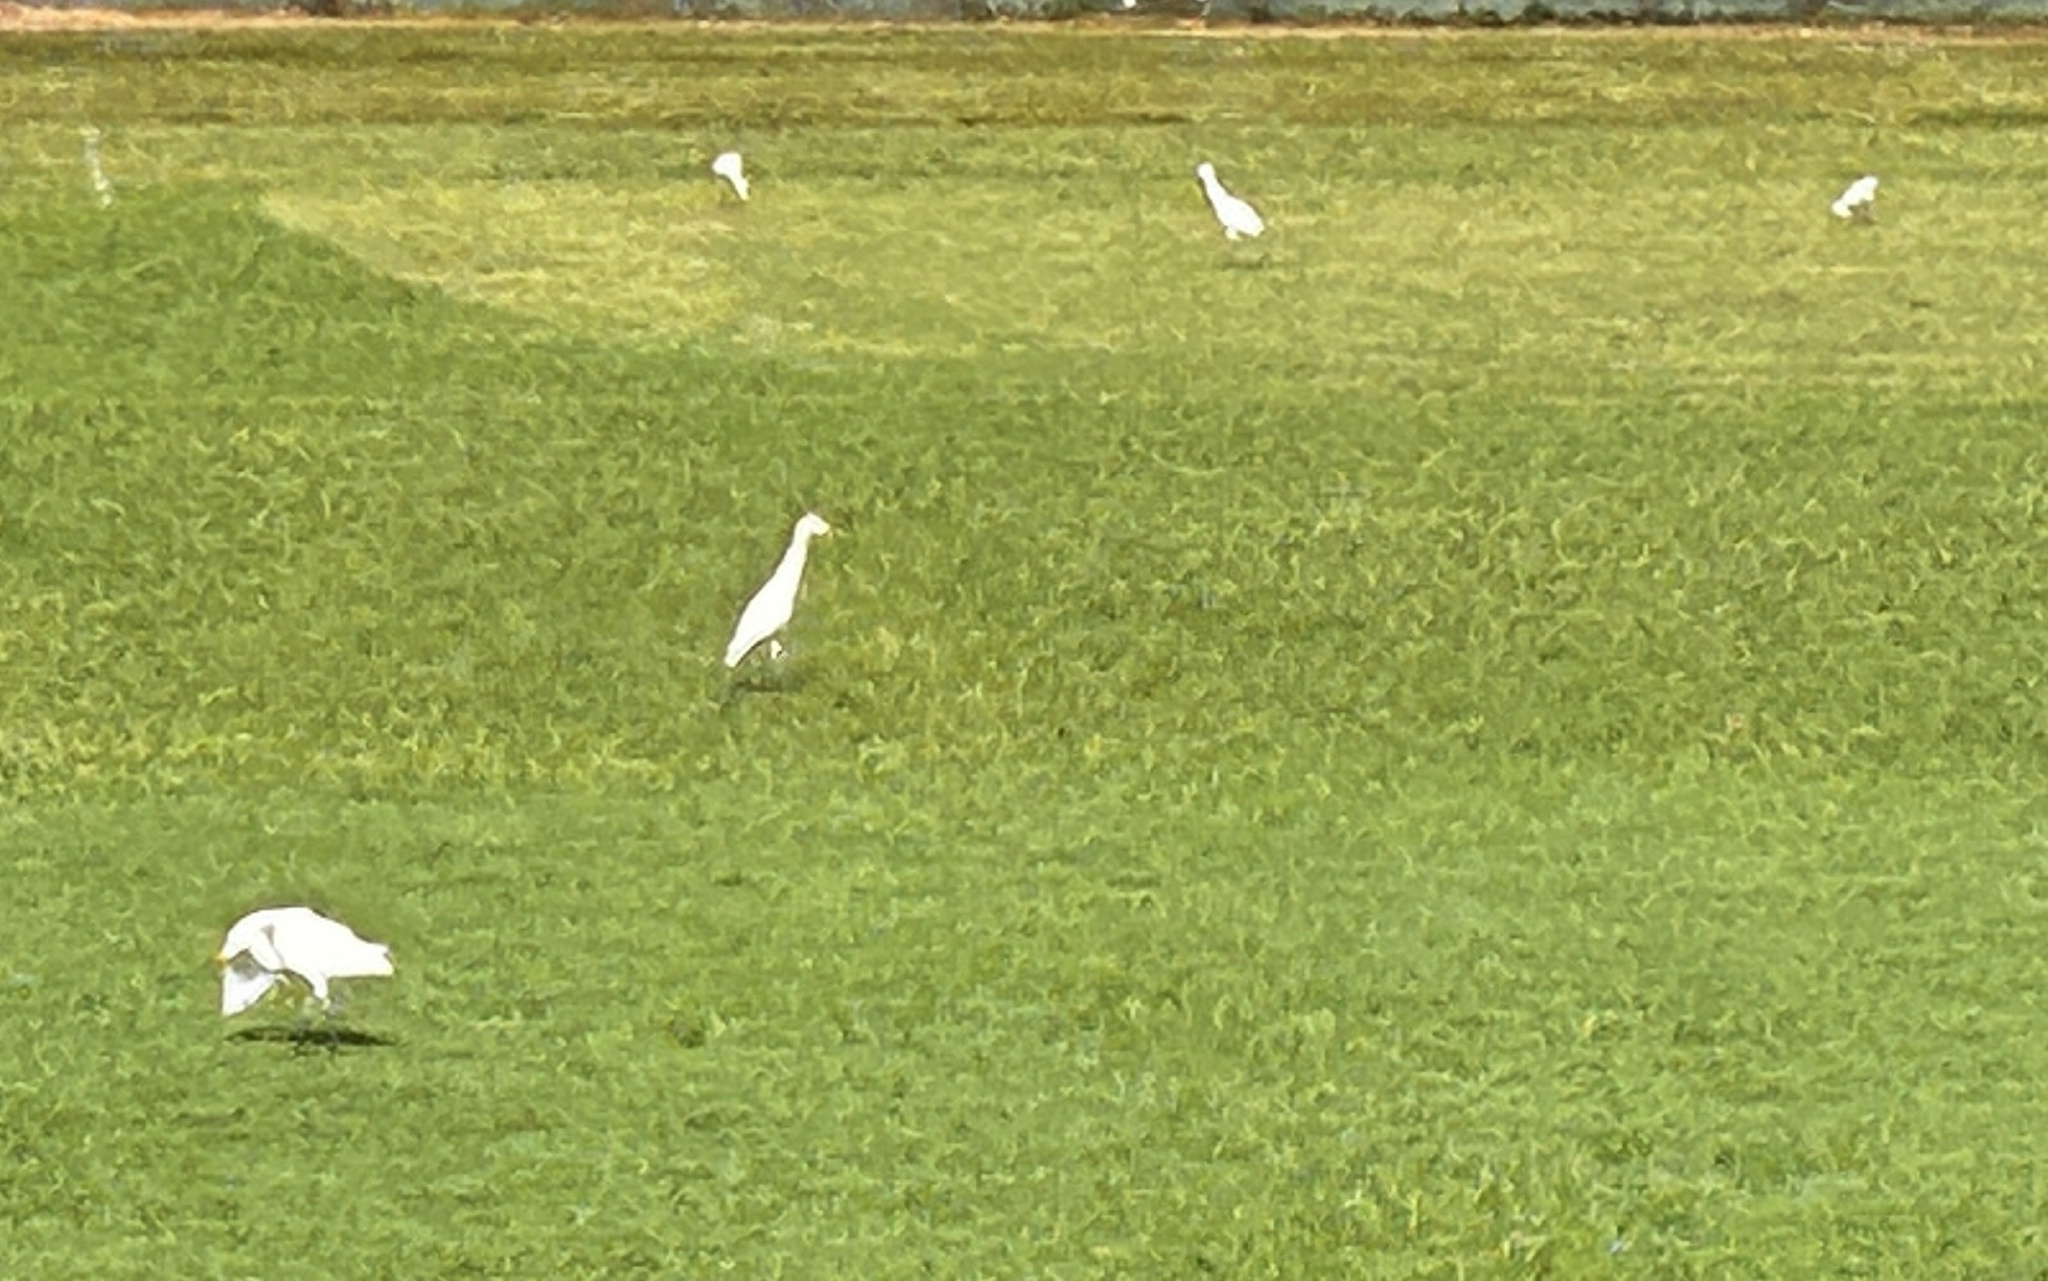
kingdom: Animalia
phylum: Chordata
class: Aves
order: Pelecaniformes
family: Ardeidae
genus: Bubulcus
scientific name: Bubulcus coromandus
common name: Eastern cattle egret
